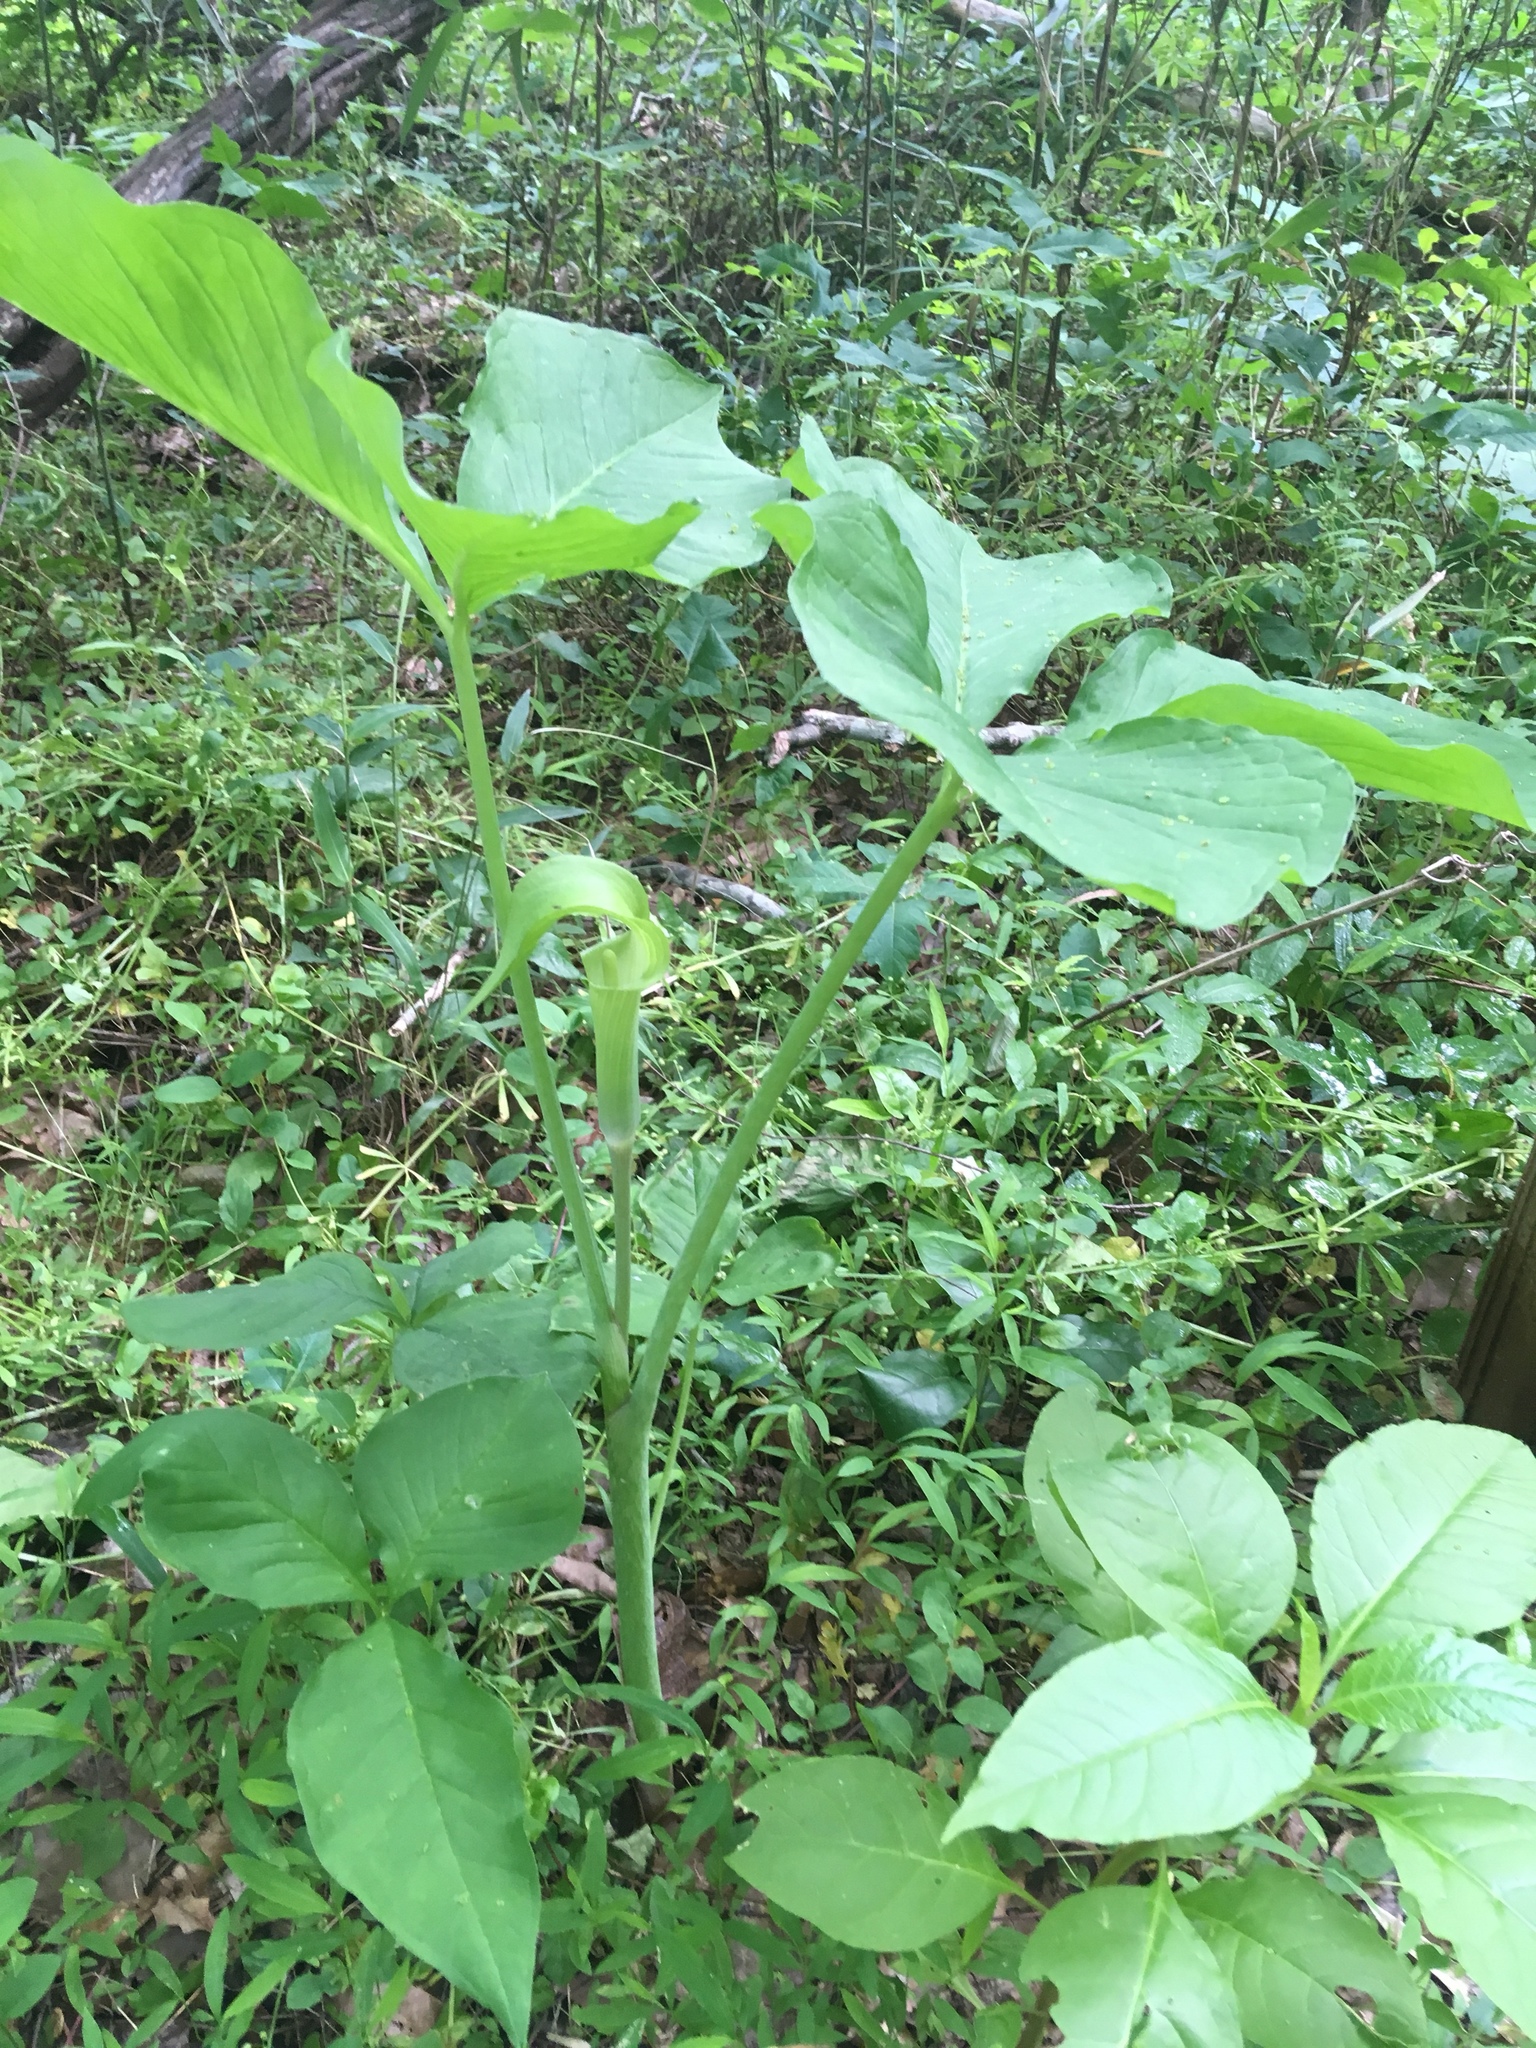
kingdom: Plantae
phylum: Tracheophyta
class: Liliopsida
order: Alismatales
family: Araceae
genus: Arisaema
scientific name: Arisaema triphyllum
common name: Jack-in-the-pulpit
